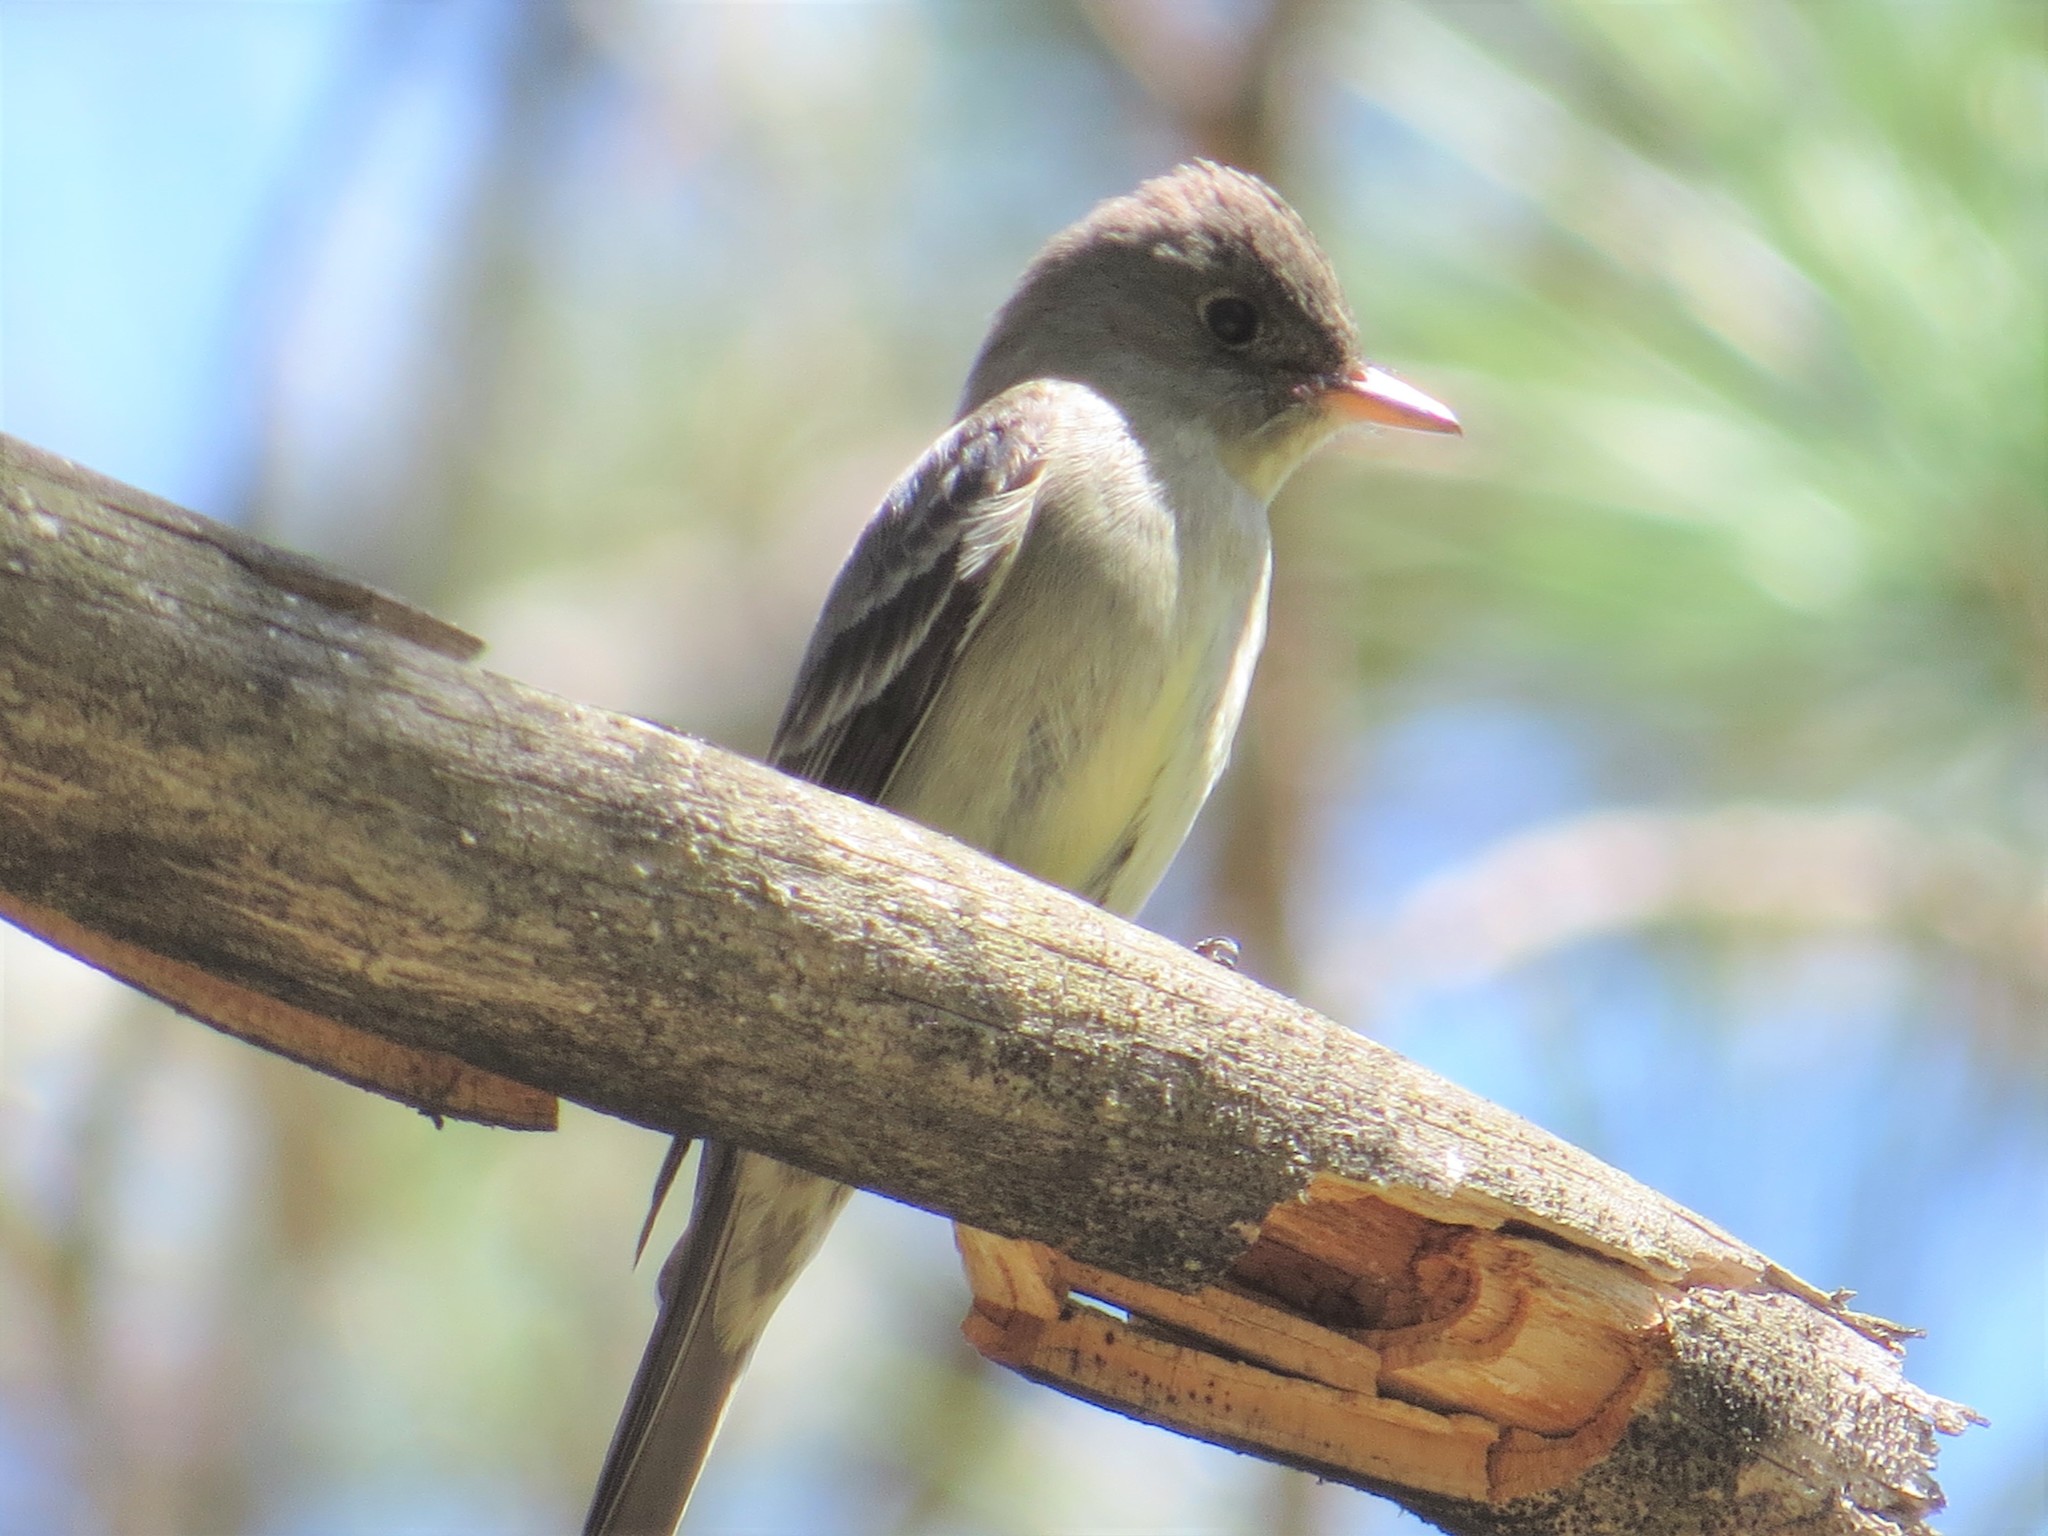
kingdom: Animalia
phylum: Chordata
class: Aves
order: Passeriformes
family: Tyrannidae
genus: Contopus
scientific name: Contopus virens
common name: Eastern wood-pewee
